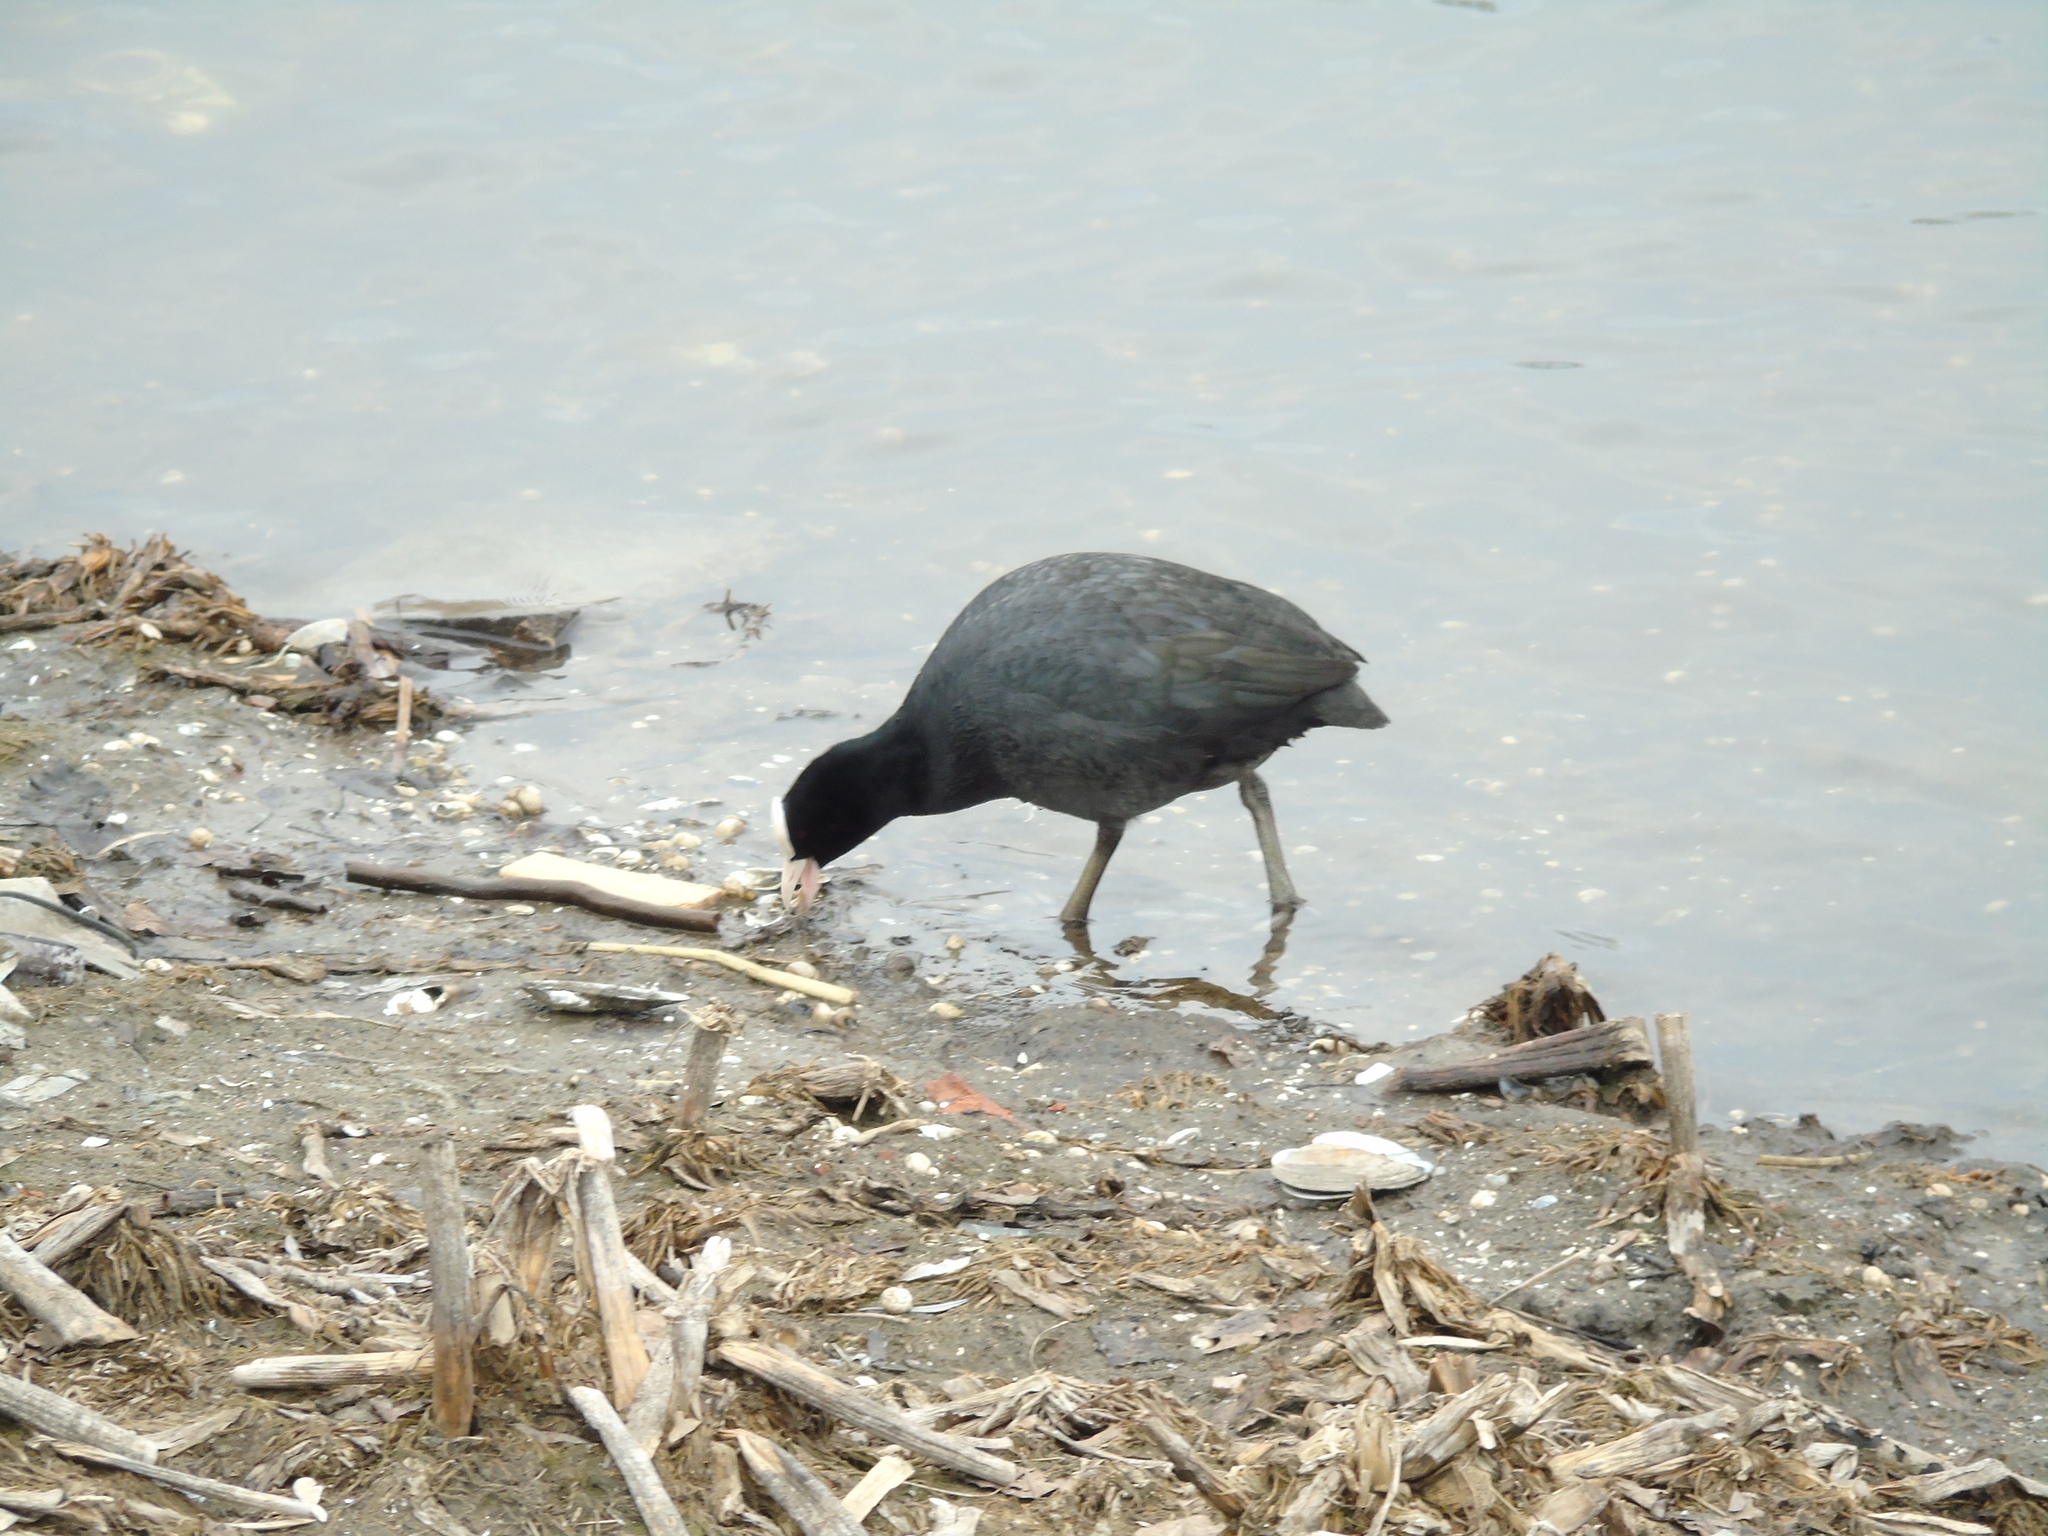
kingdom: Animalia
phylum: Chordata
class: Aves
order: Gruiformes
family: Rallidae
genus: Fulica
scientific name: Fulica atra
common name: Eurasian coot
